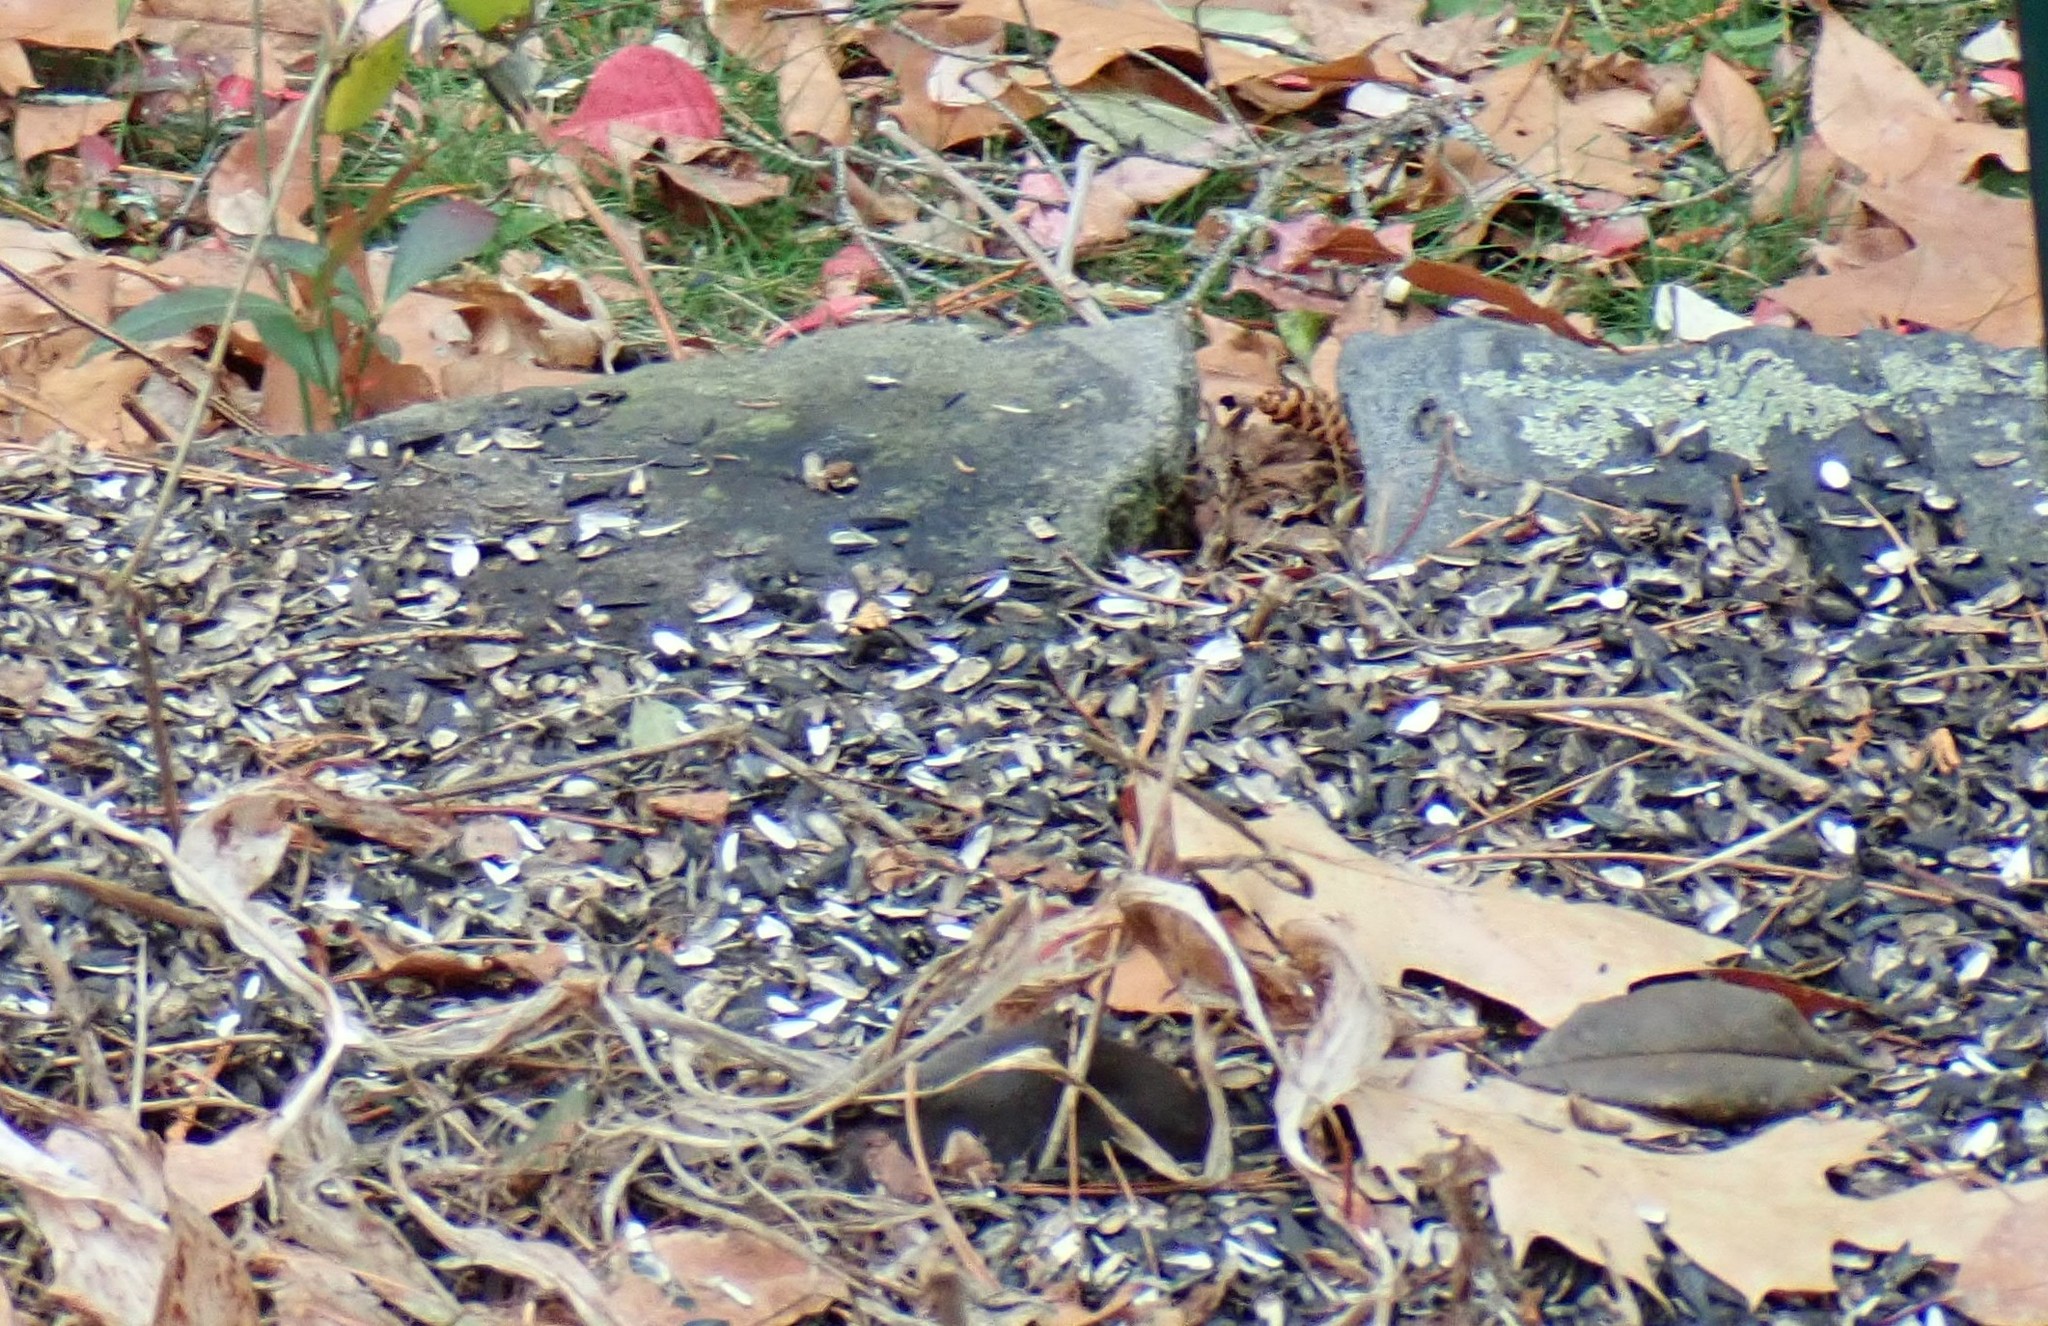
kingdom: Animalia
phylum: Chordata
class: Mammalia
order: Rodentia
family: Cricetidae
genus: Microtus
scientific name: Microtus pennsylvanicus
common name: Meadow vole
